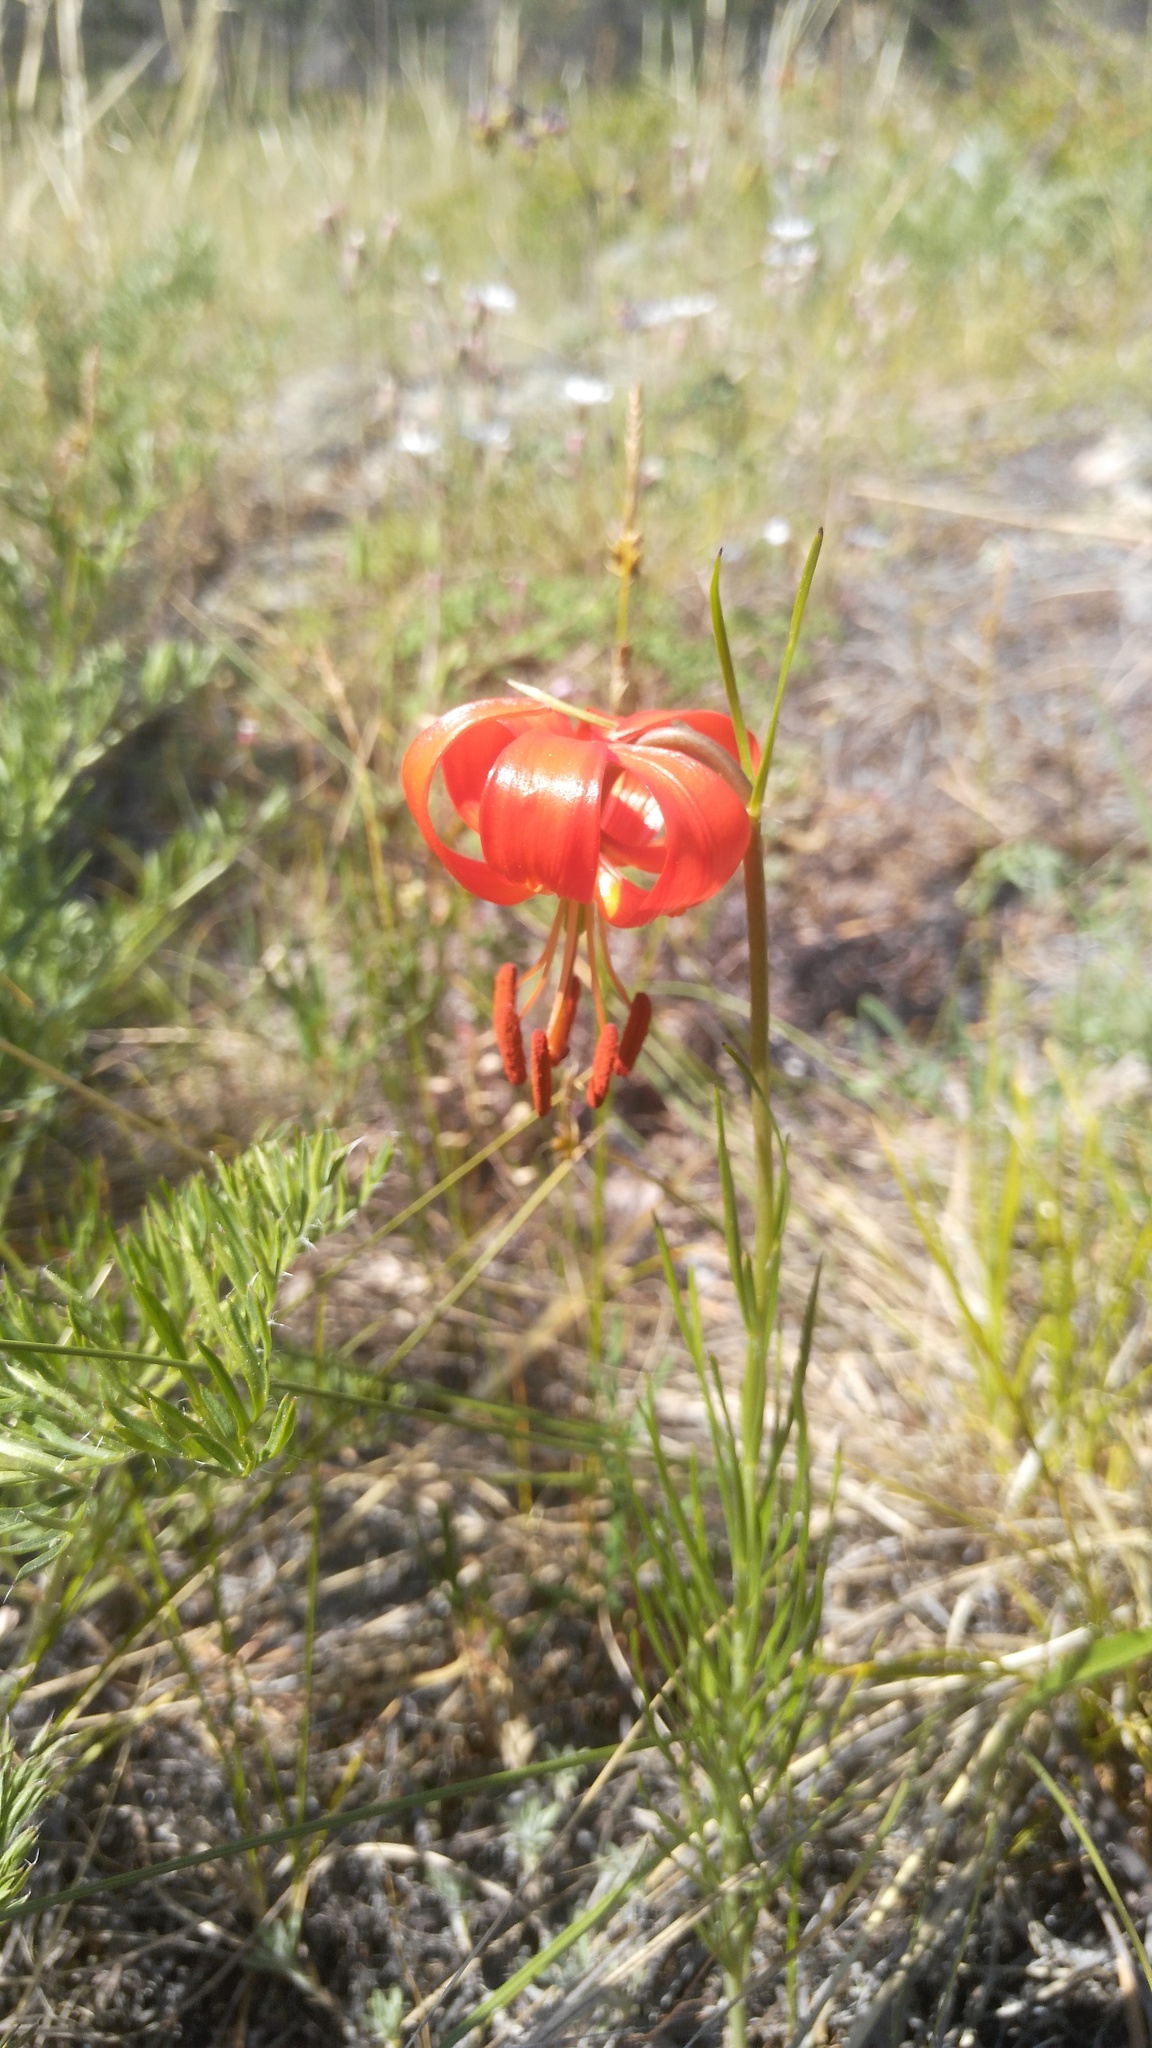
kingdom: Plantae
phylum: Tracheophyta
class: Liliopsida
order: Liliales
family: Liliaceae
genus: Lilium
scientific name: Lilium pumilum
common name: Coral lily
